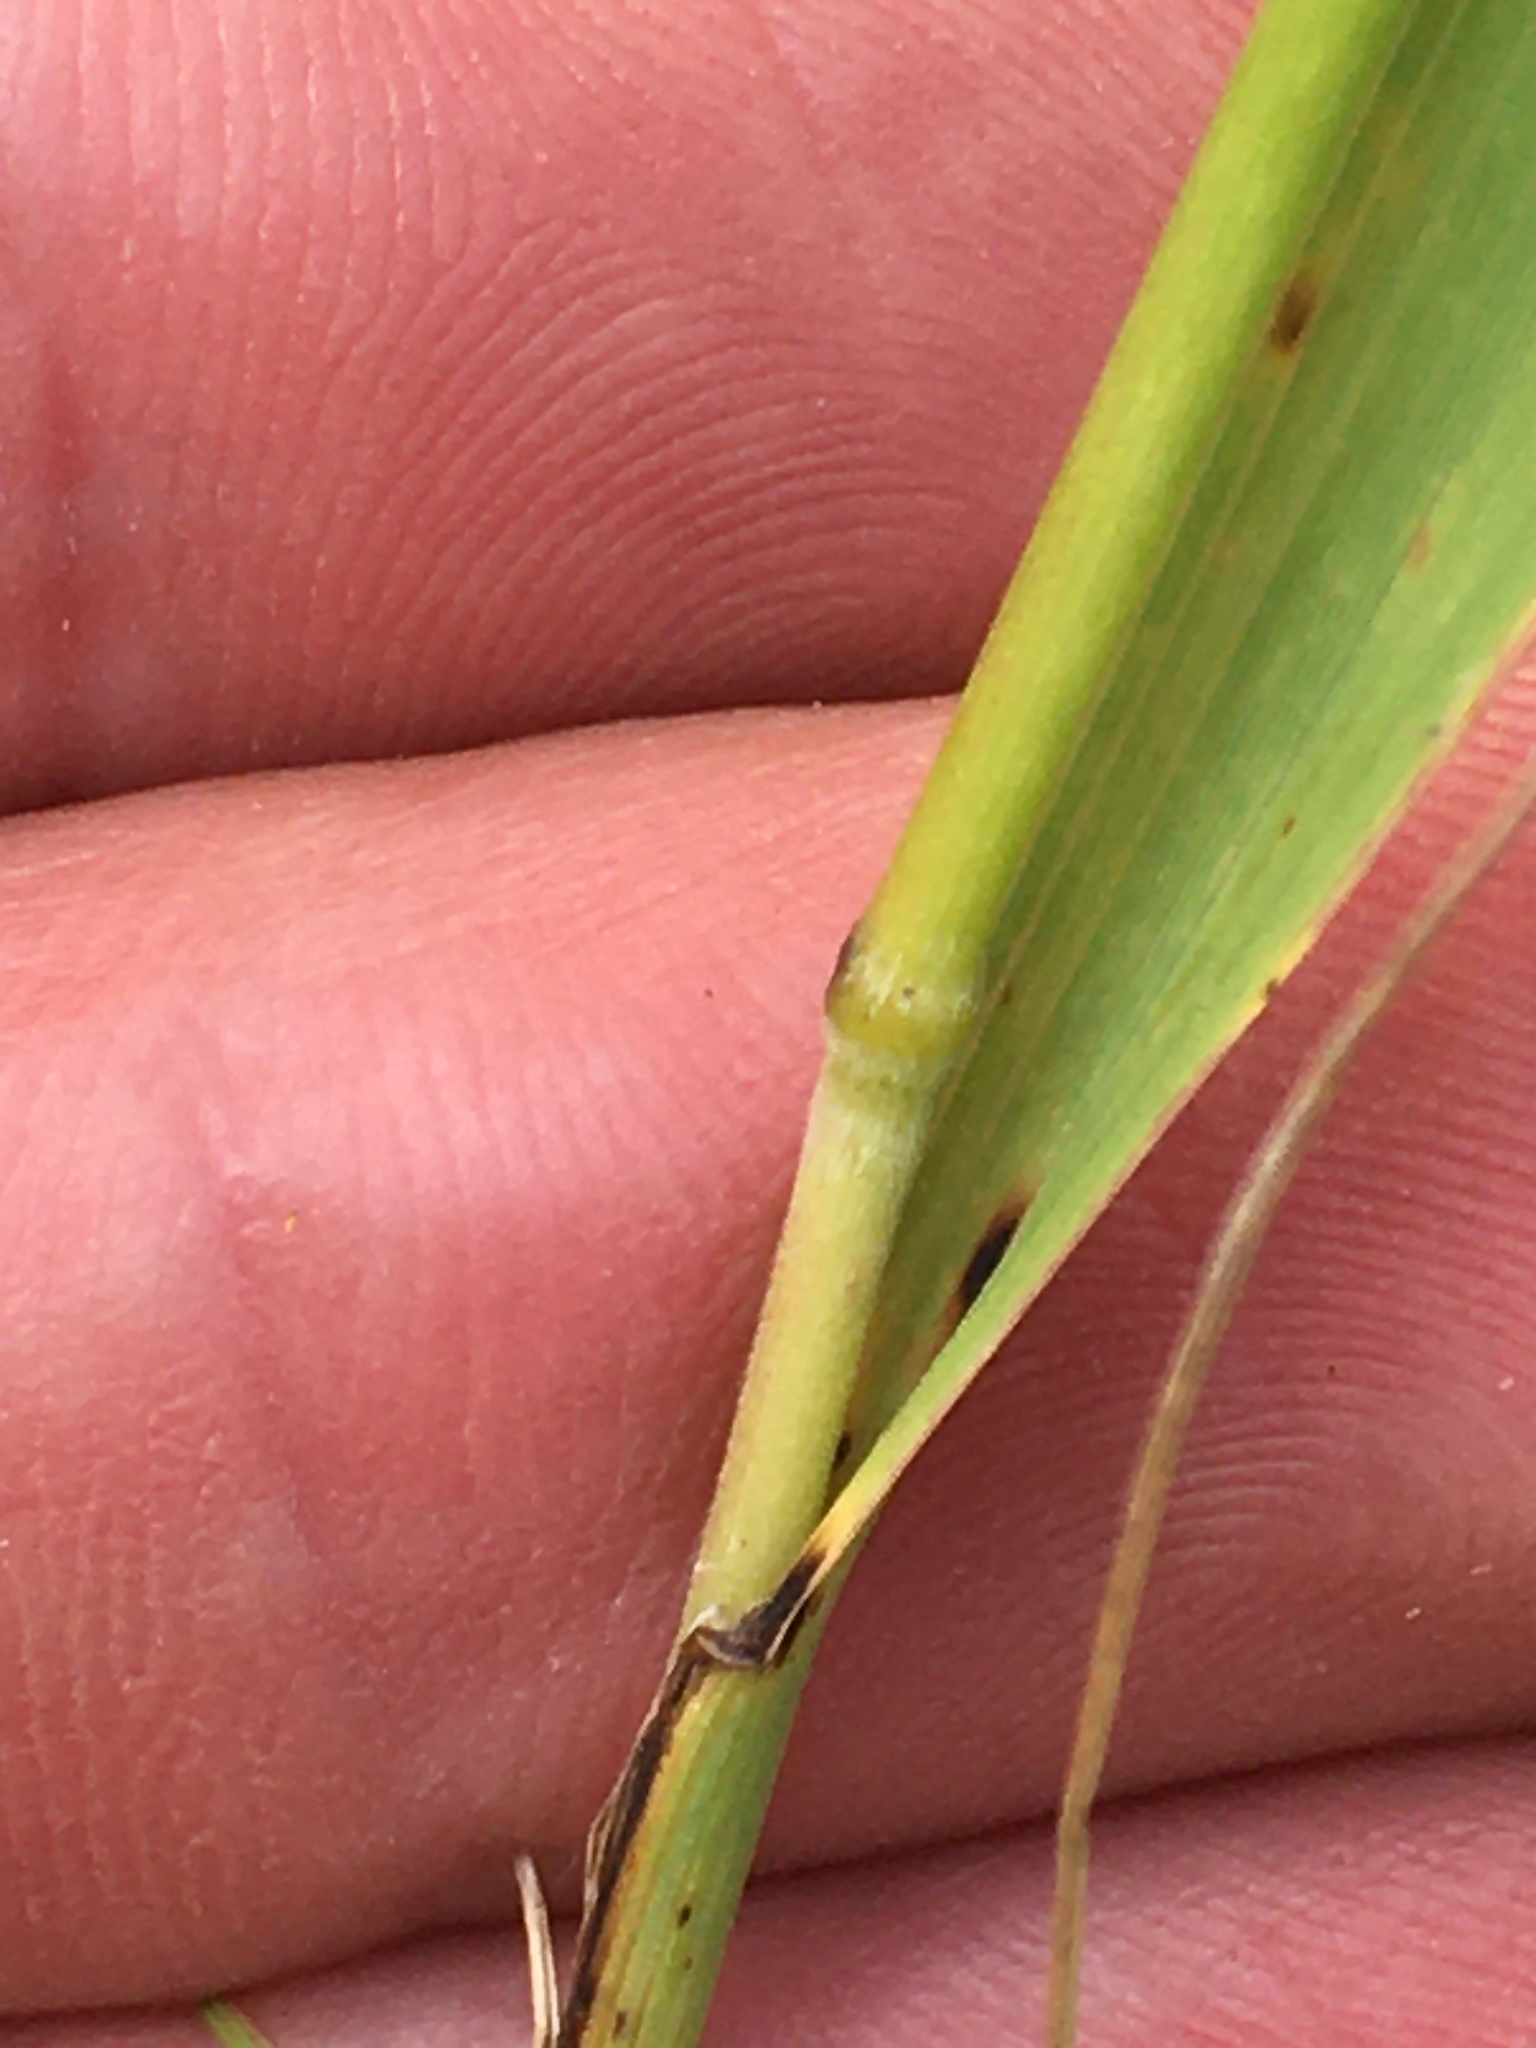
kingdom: Plantae
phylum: Tracheophyta
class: Liliopsida
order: Poales
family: Poaceae
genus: Bromus
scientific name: Bromus inermis
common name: Smooth brome
